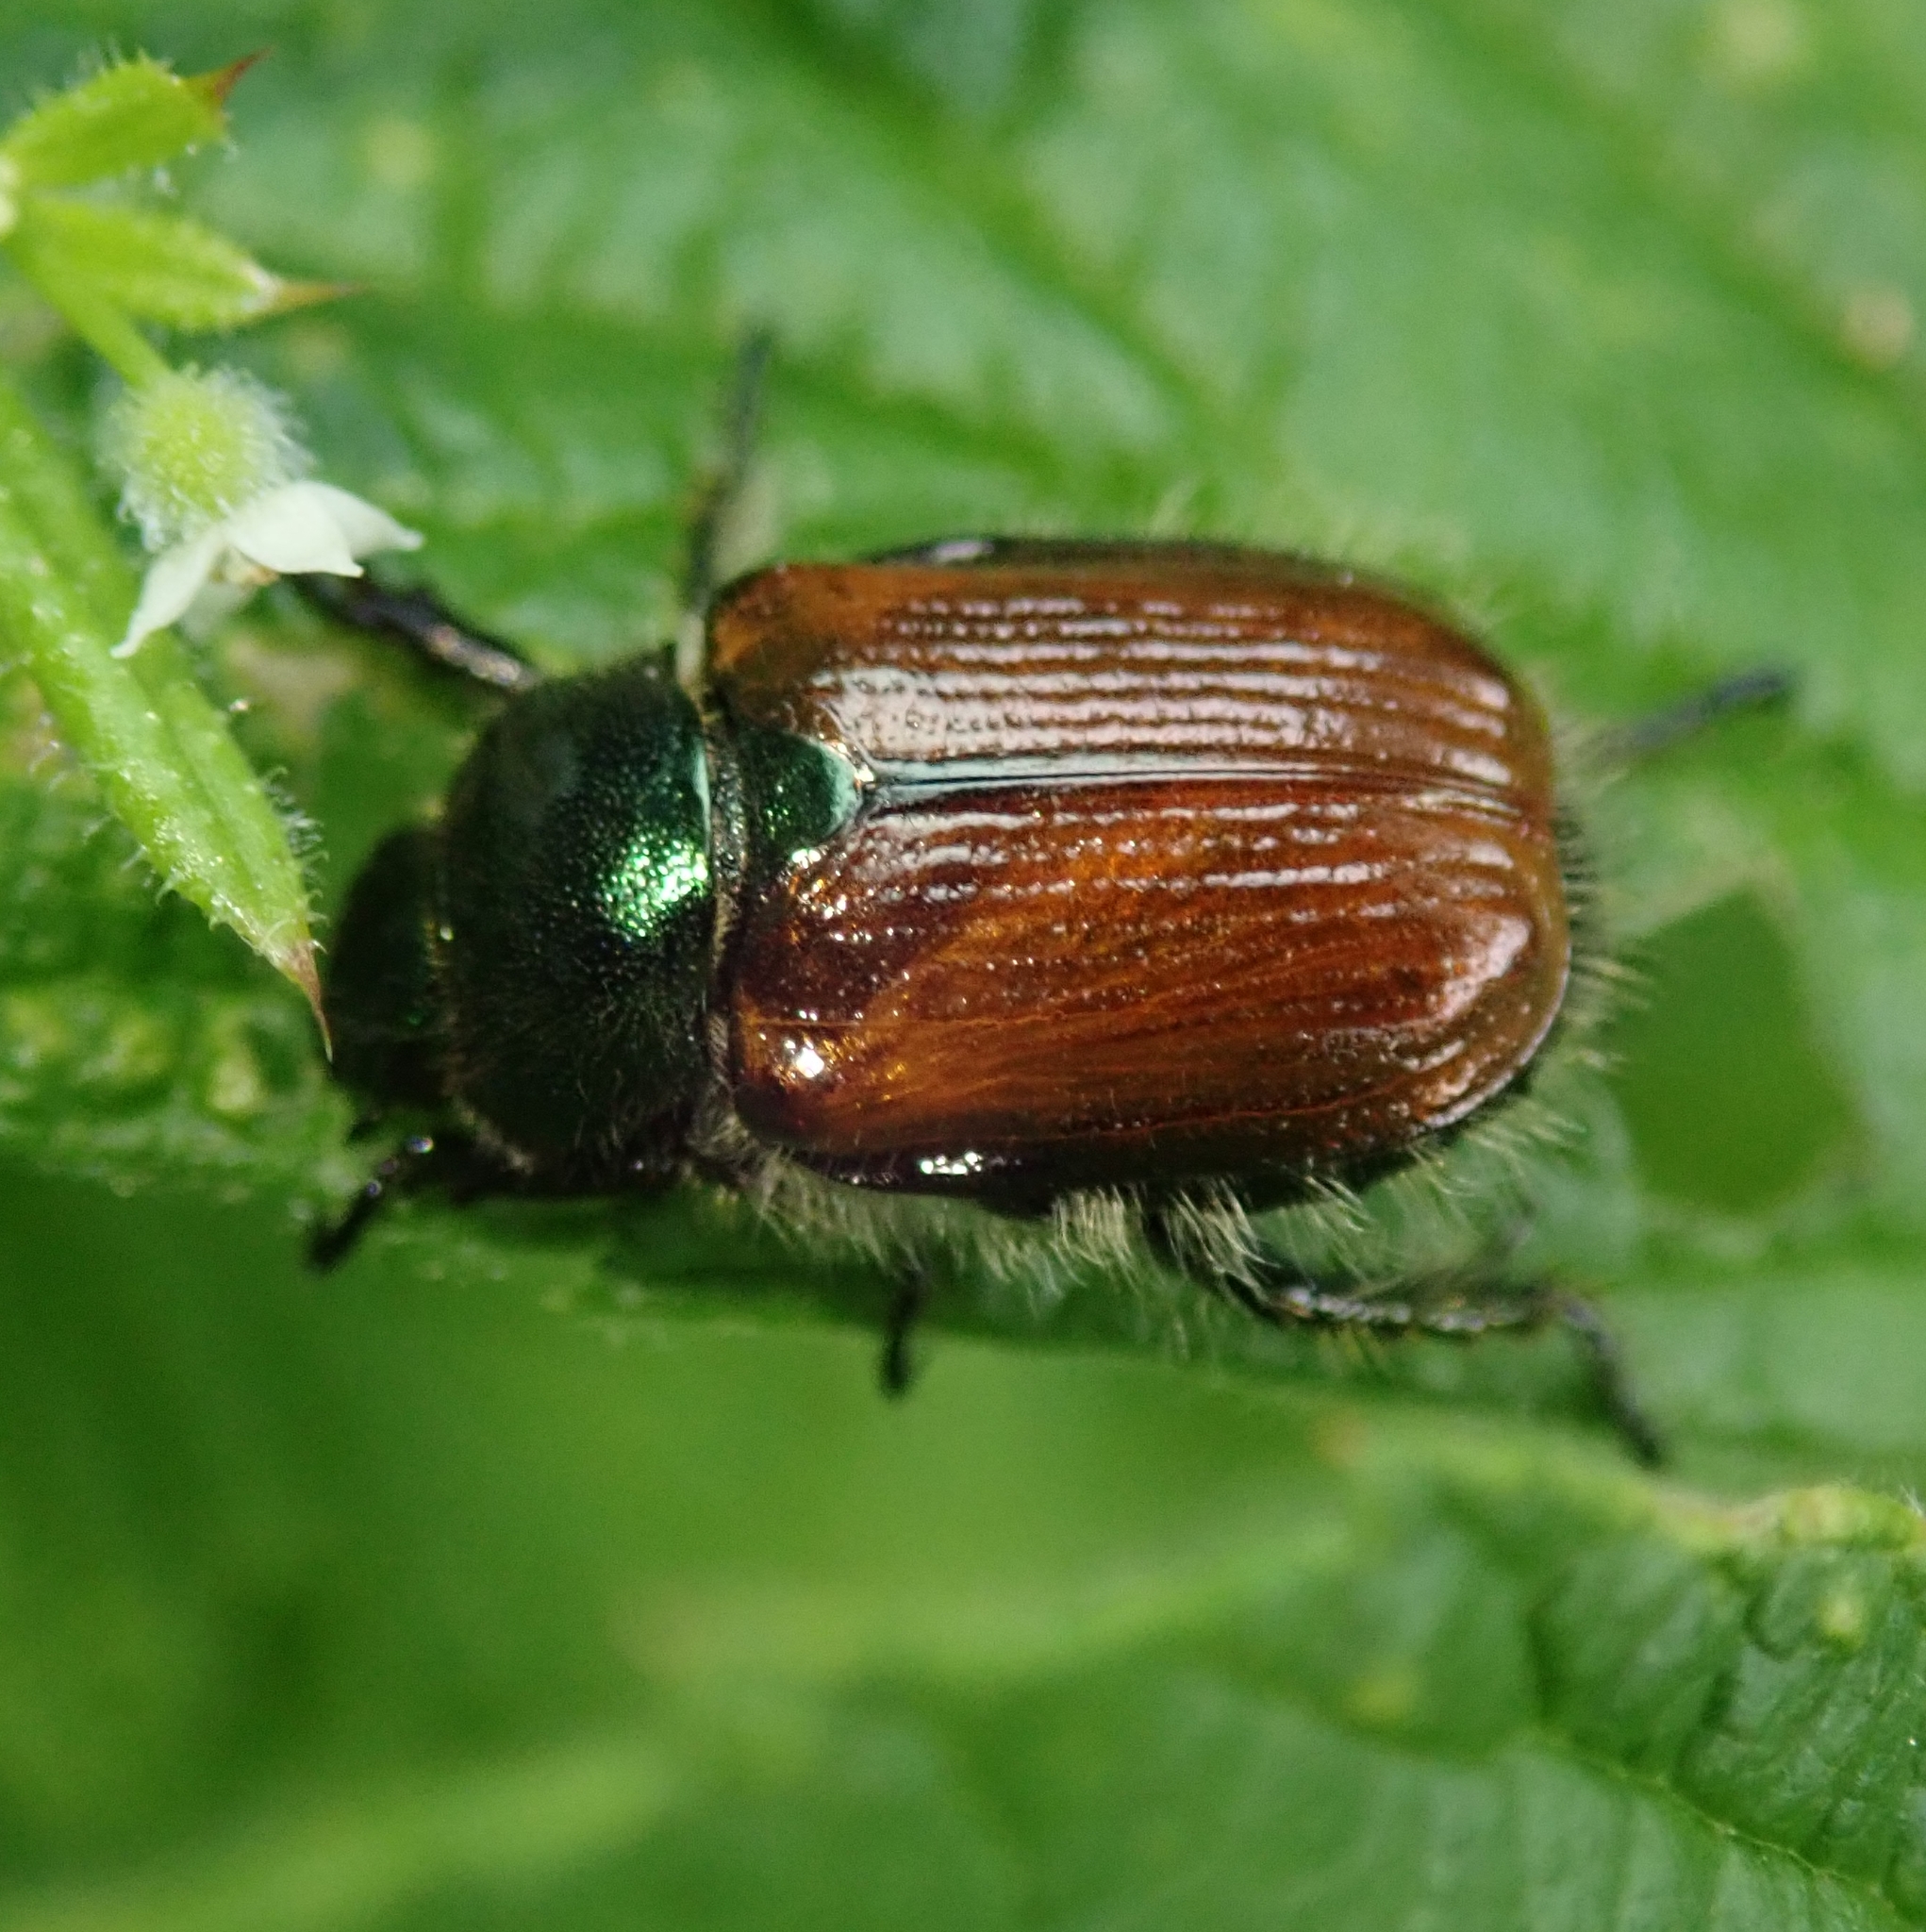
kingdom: Animalia
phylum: Arthropoda
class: Insecta
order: Coleoptera
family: Scarabaeidae
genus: Phyllopertha
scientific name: Phyllopertha horticola
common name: Garden chafer
